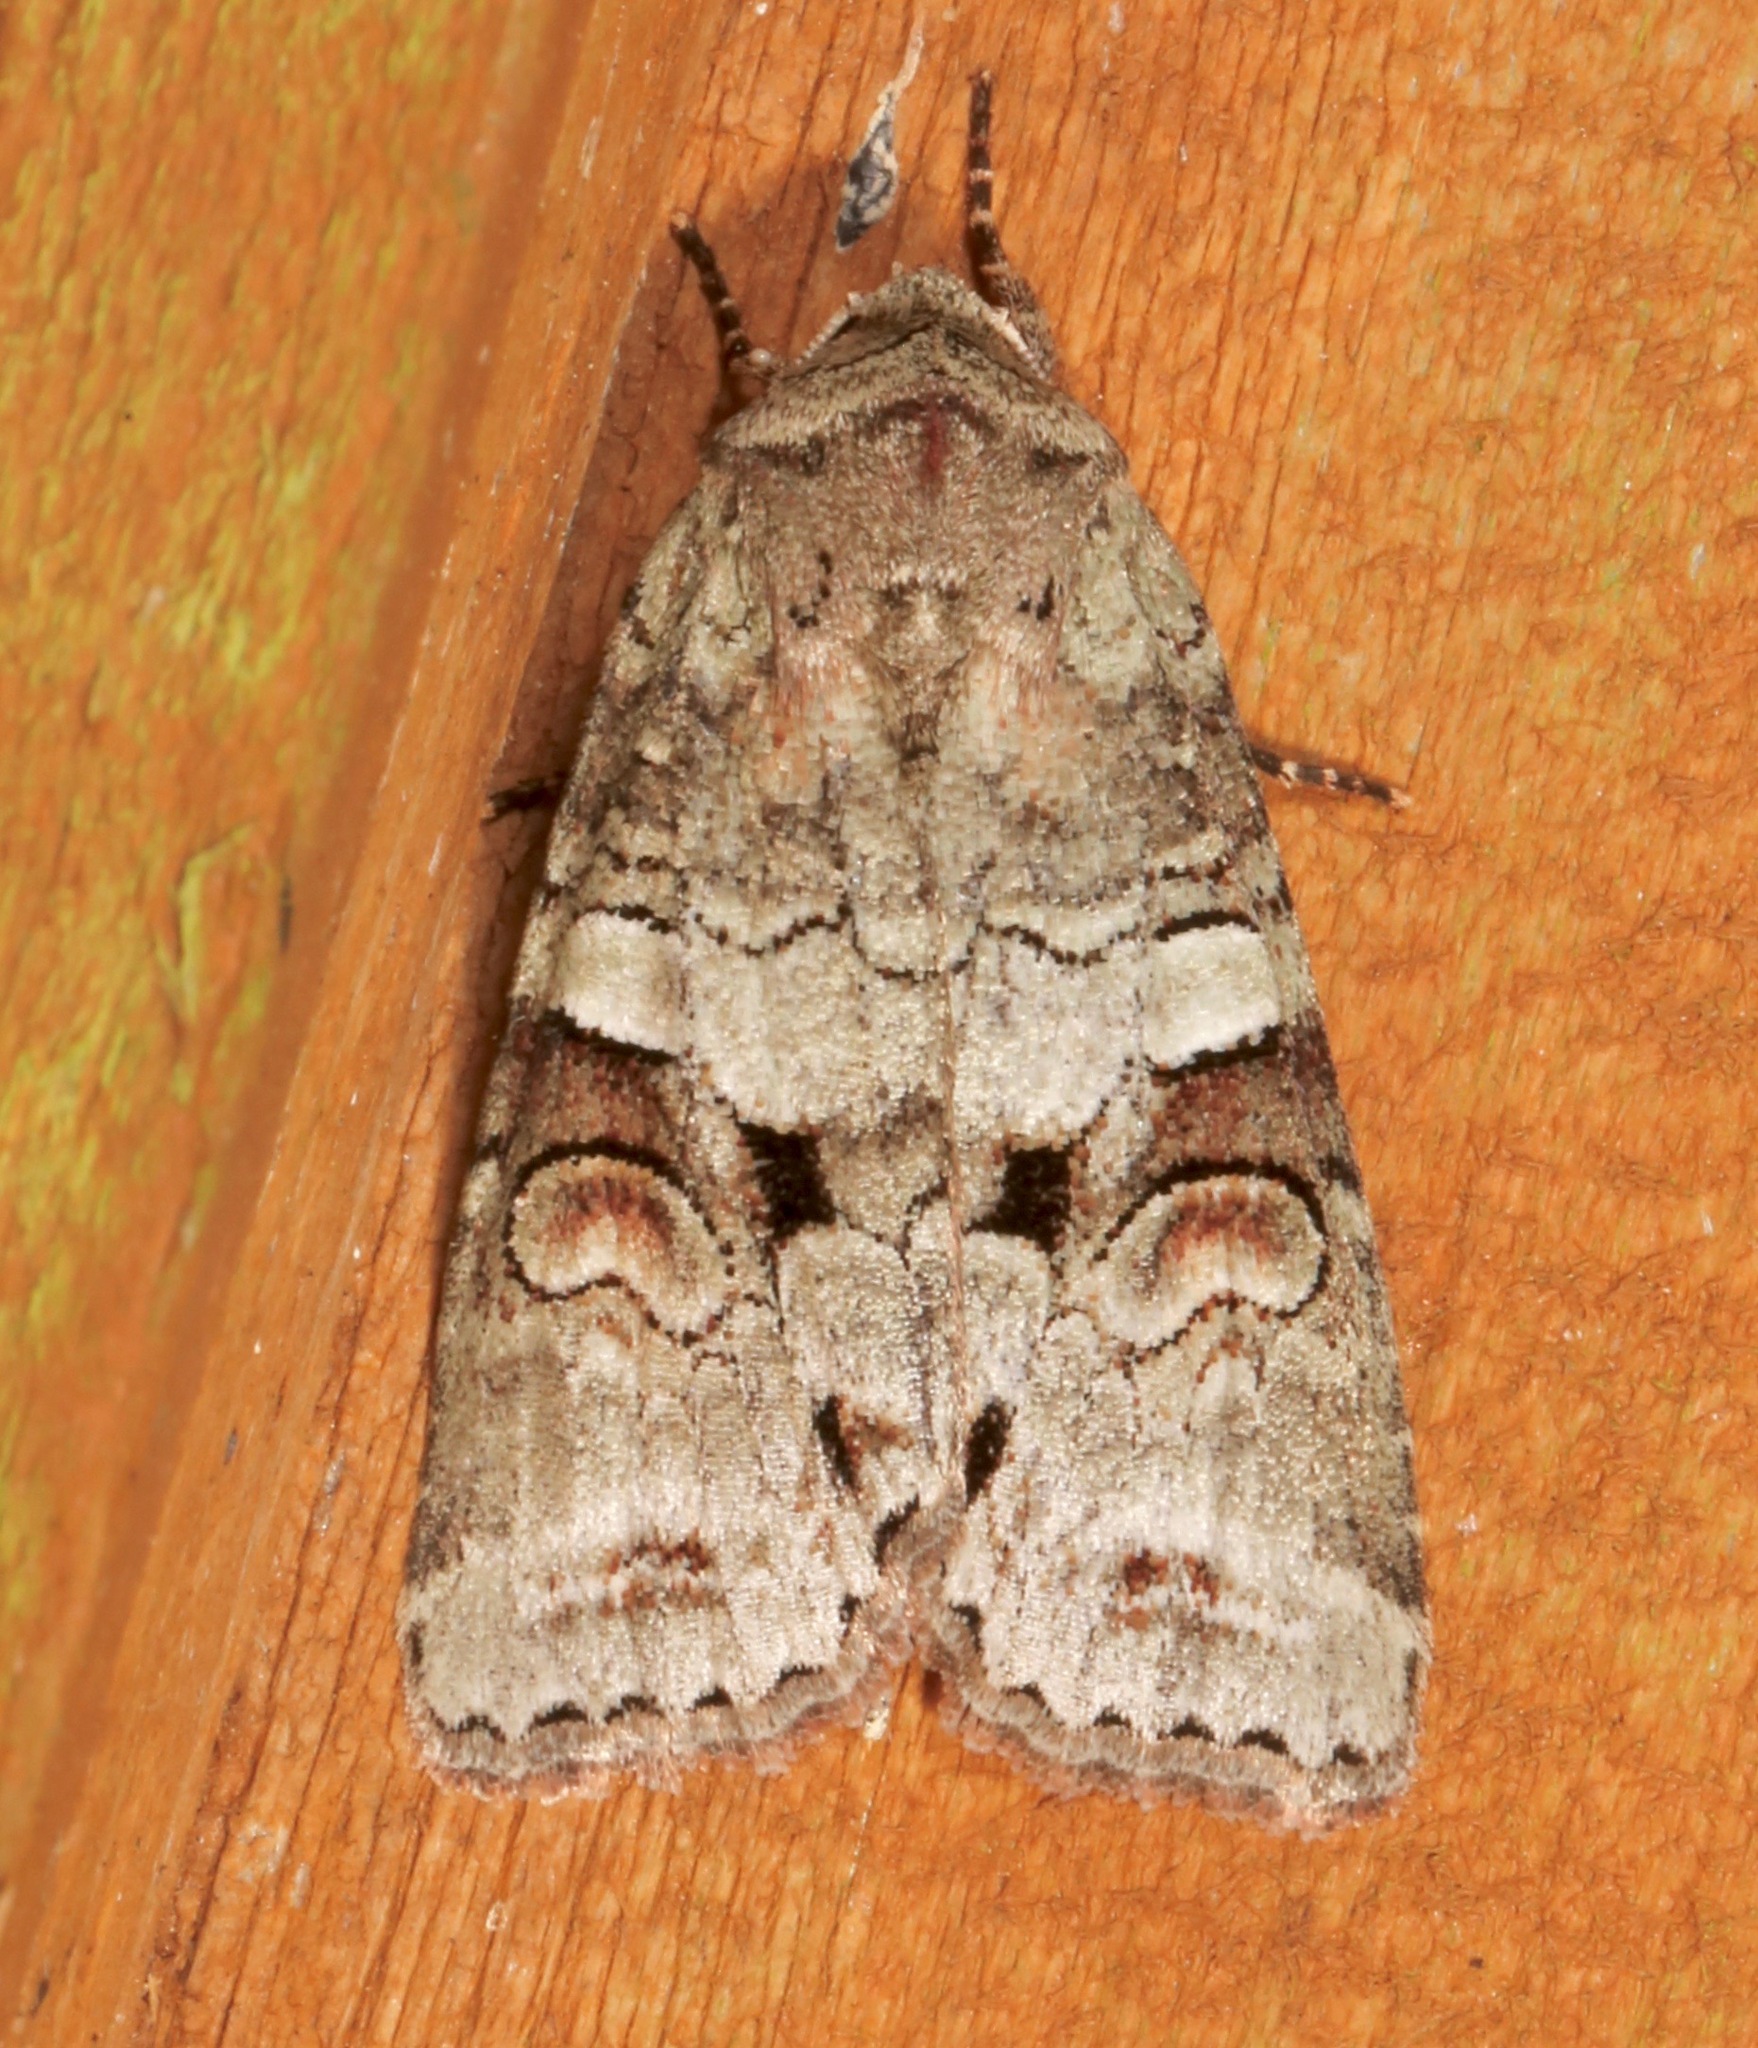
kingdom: Animalia
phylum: Arthropoda
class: Insecta
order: Lepidoptera
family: Noctuidae
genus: Egira
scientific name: Egira alternans
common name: Alternate woodling
